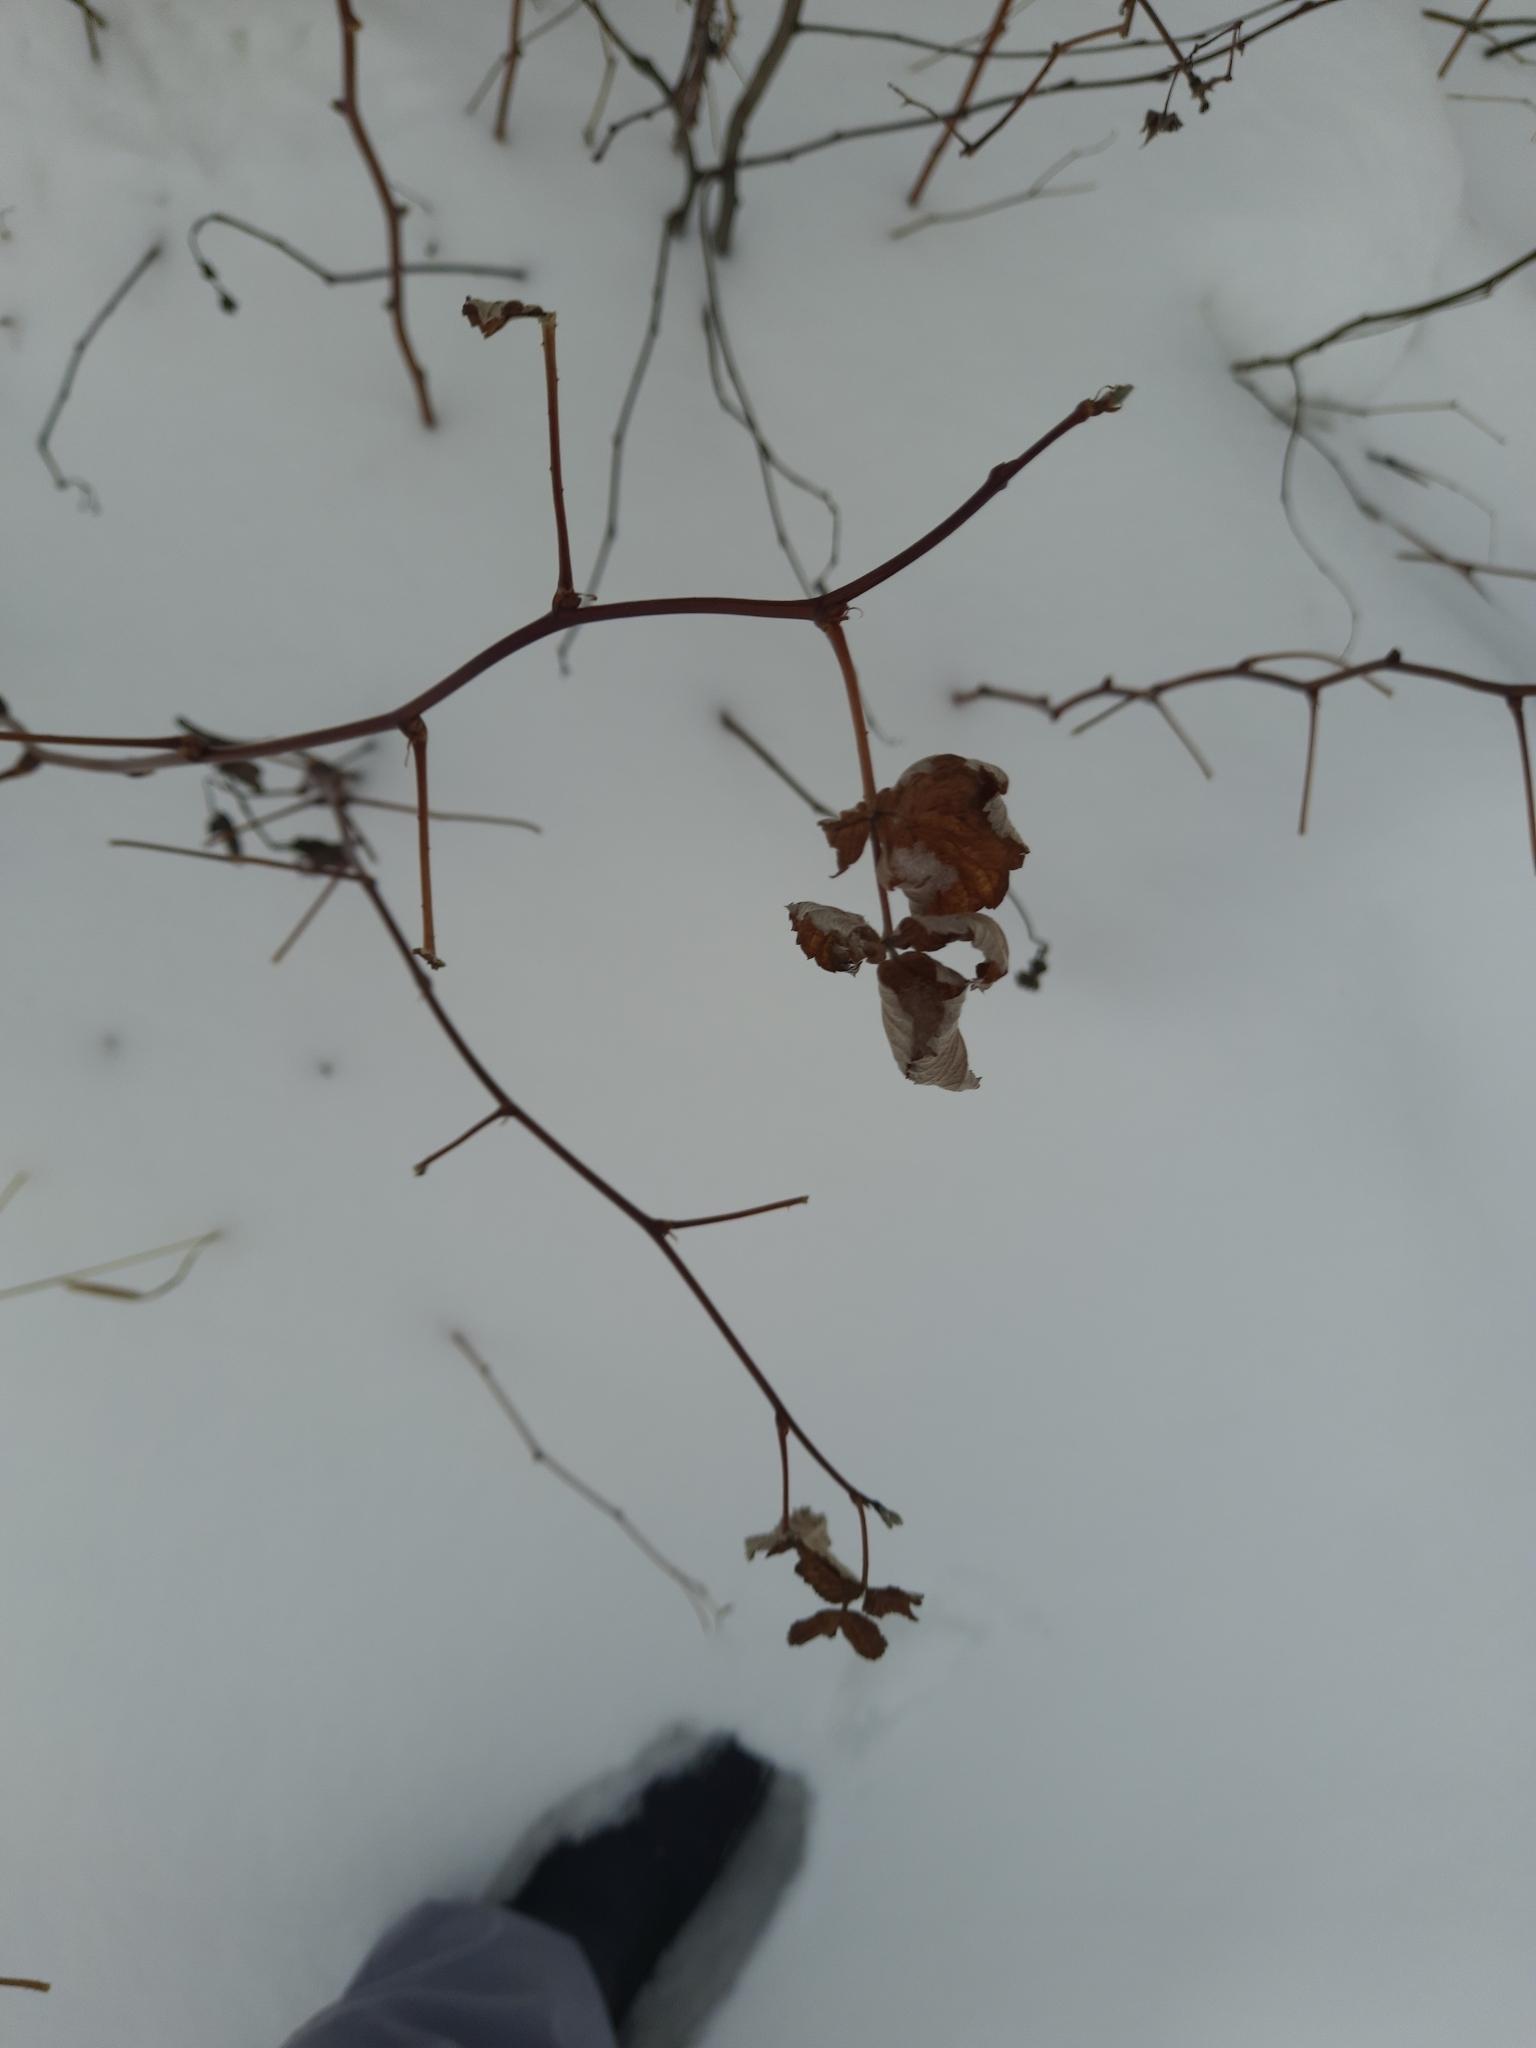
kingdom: Plantae
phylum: Tracheophyta
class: Magnoliopsida
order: Rosales
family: Rosaceae
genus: Rubus
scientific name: Rubus idaeus
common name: Raspberry
